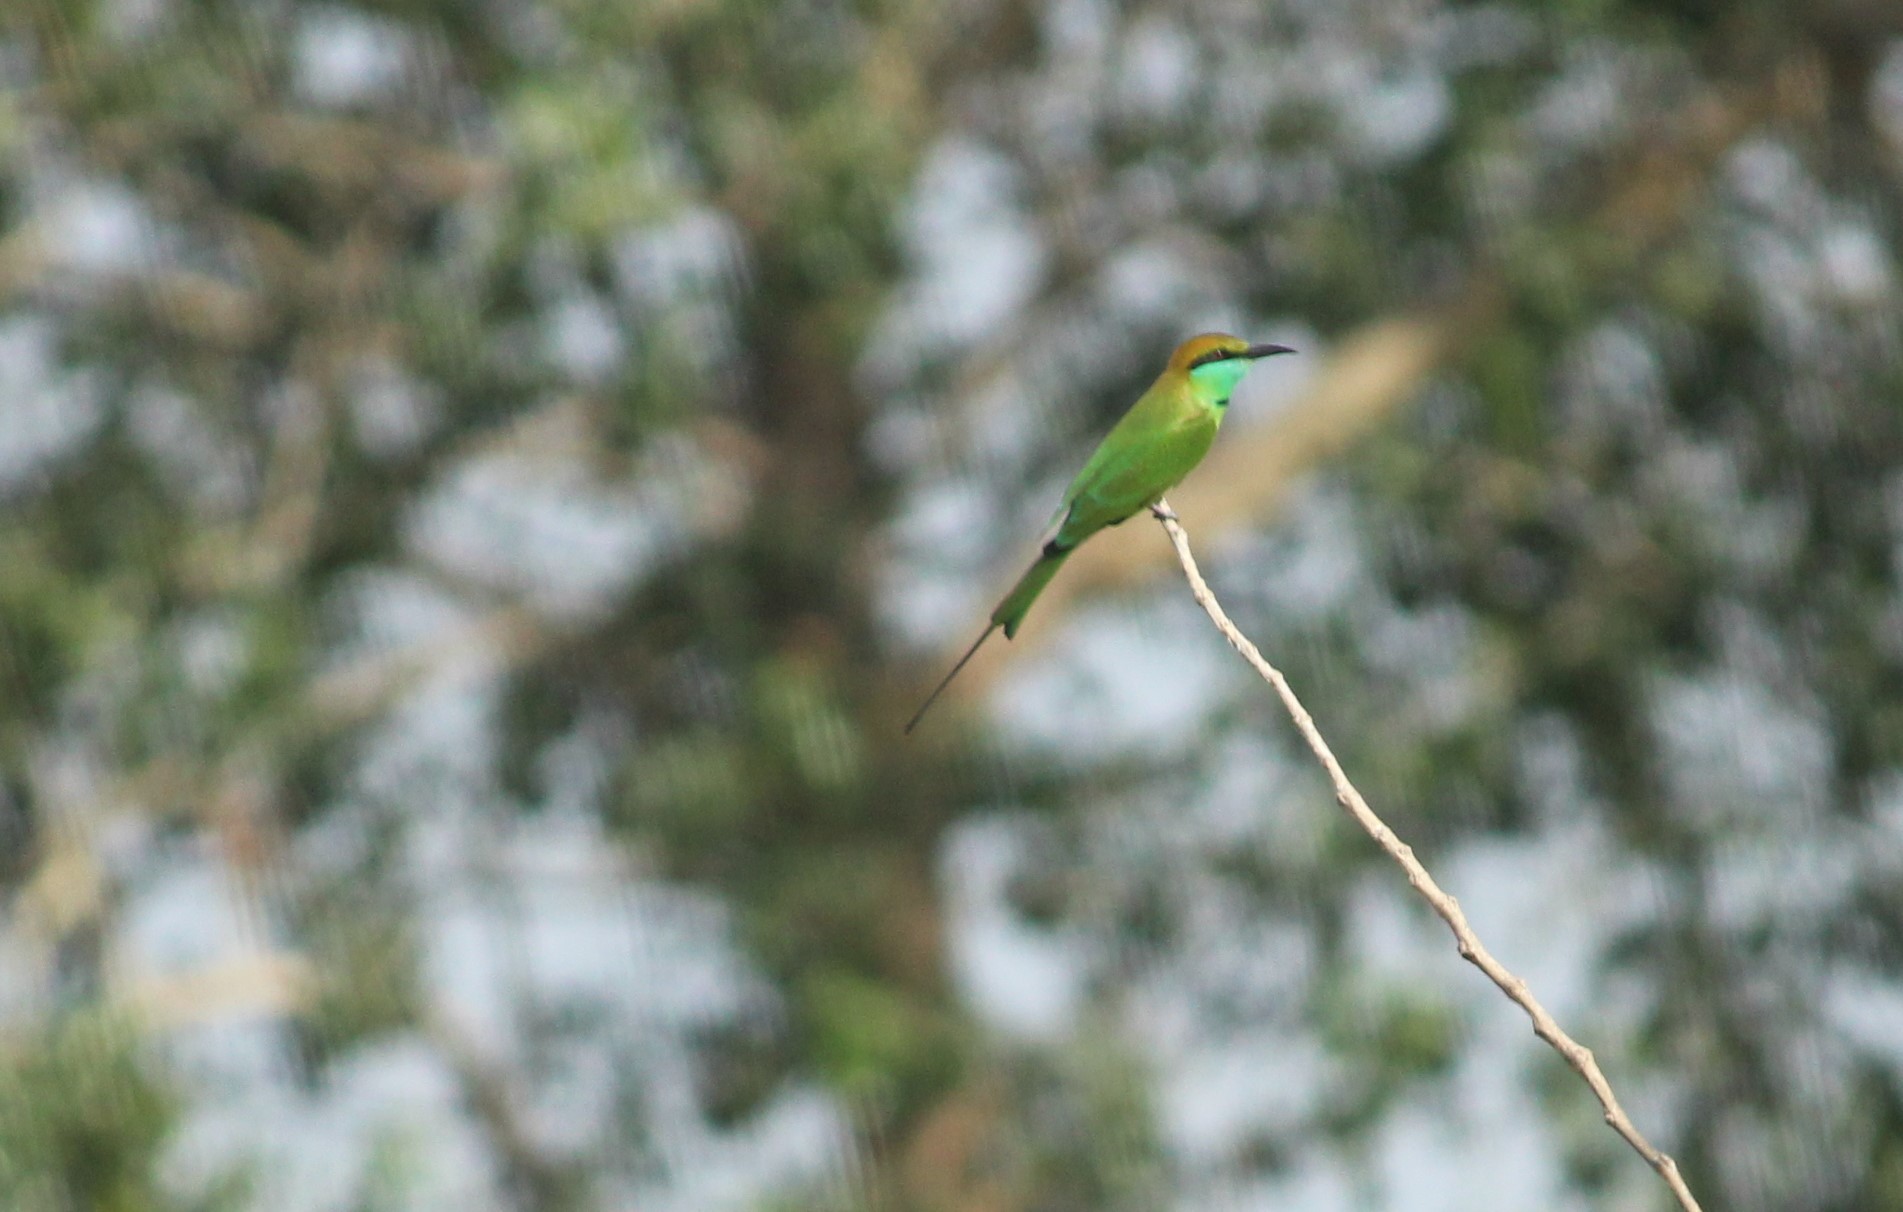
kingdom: Animalia
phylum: Chordata
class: Aves
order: Coraciiformes
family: Meropidae
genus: Merops
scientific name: Merops orientalis
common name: Green bee-eater
